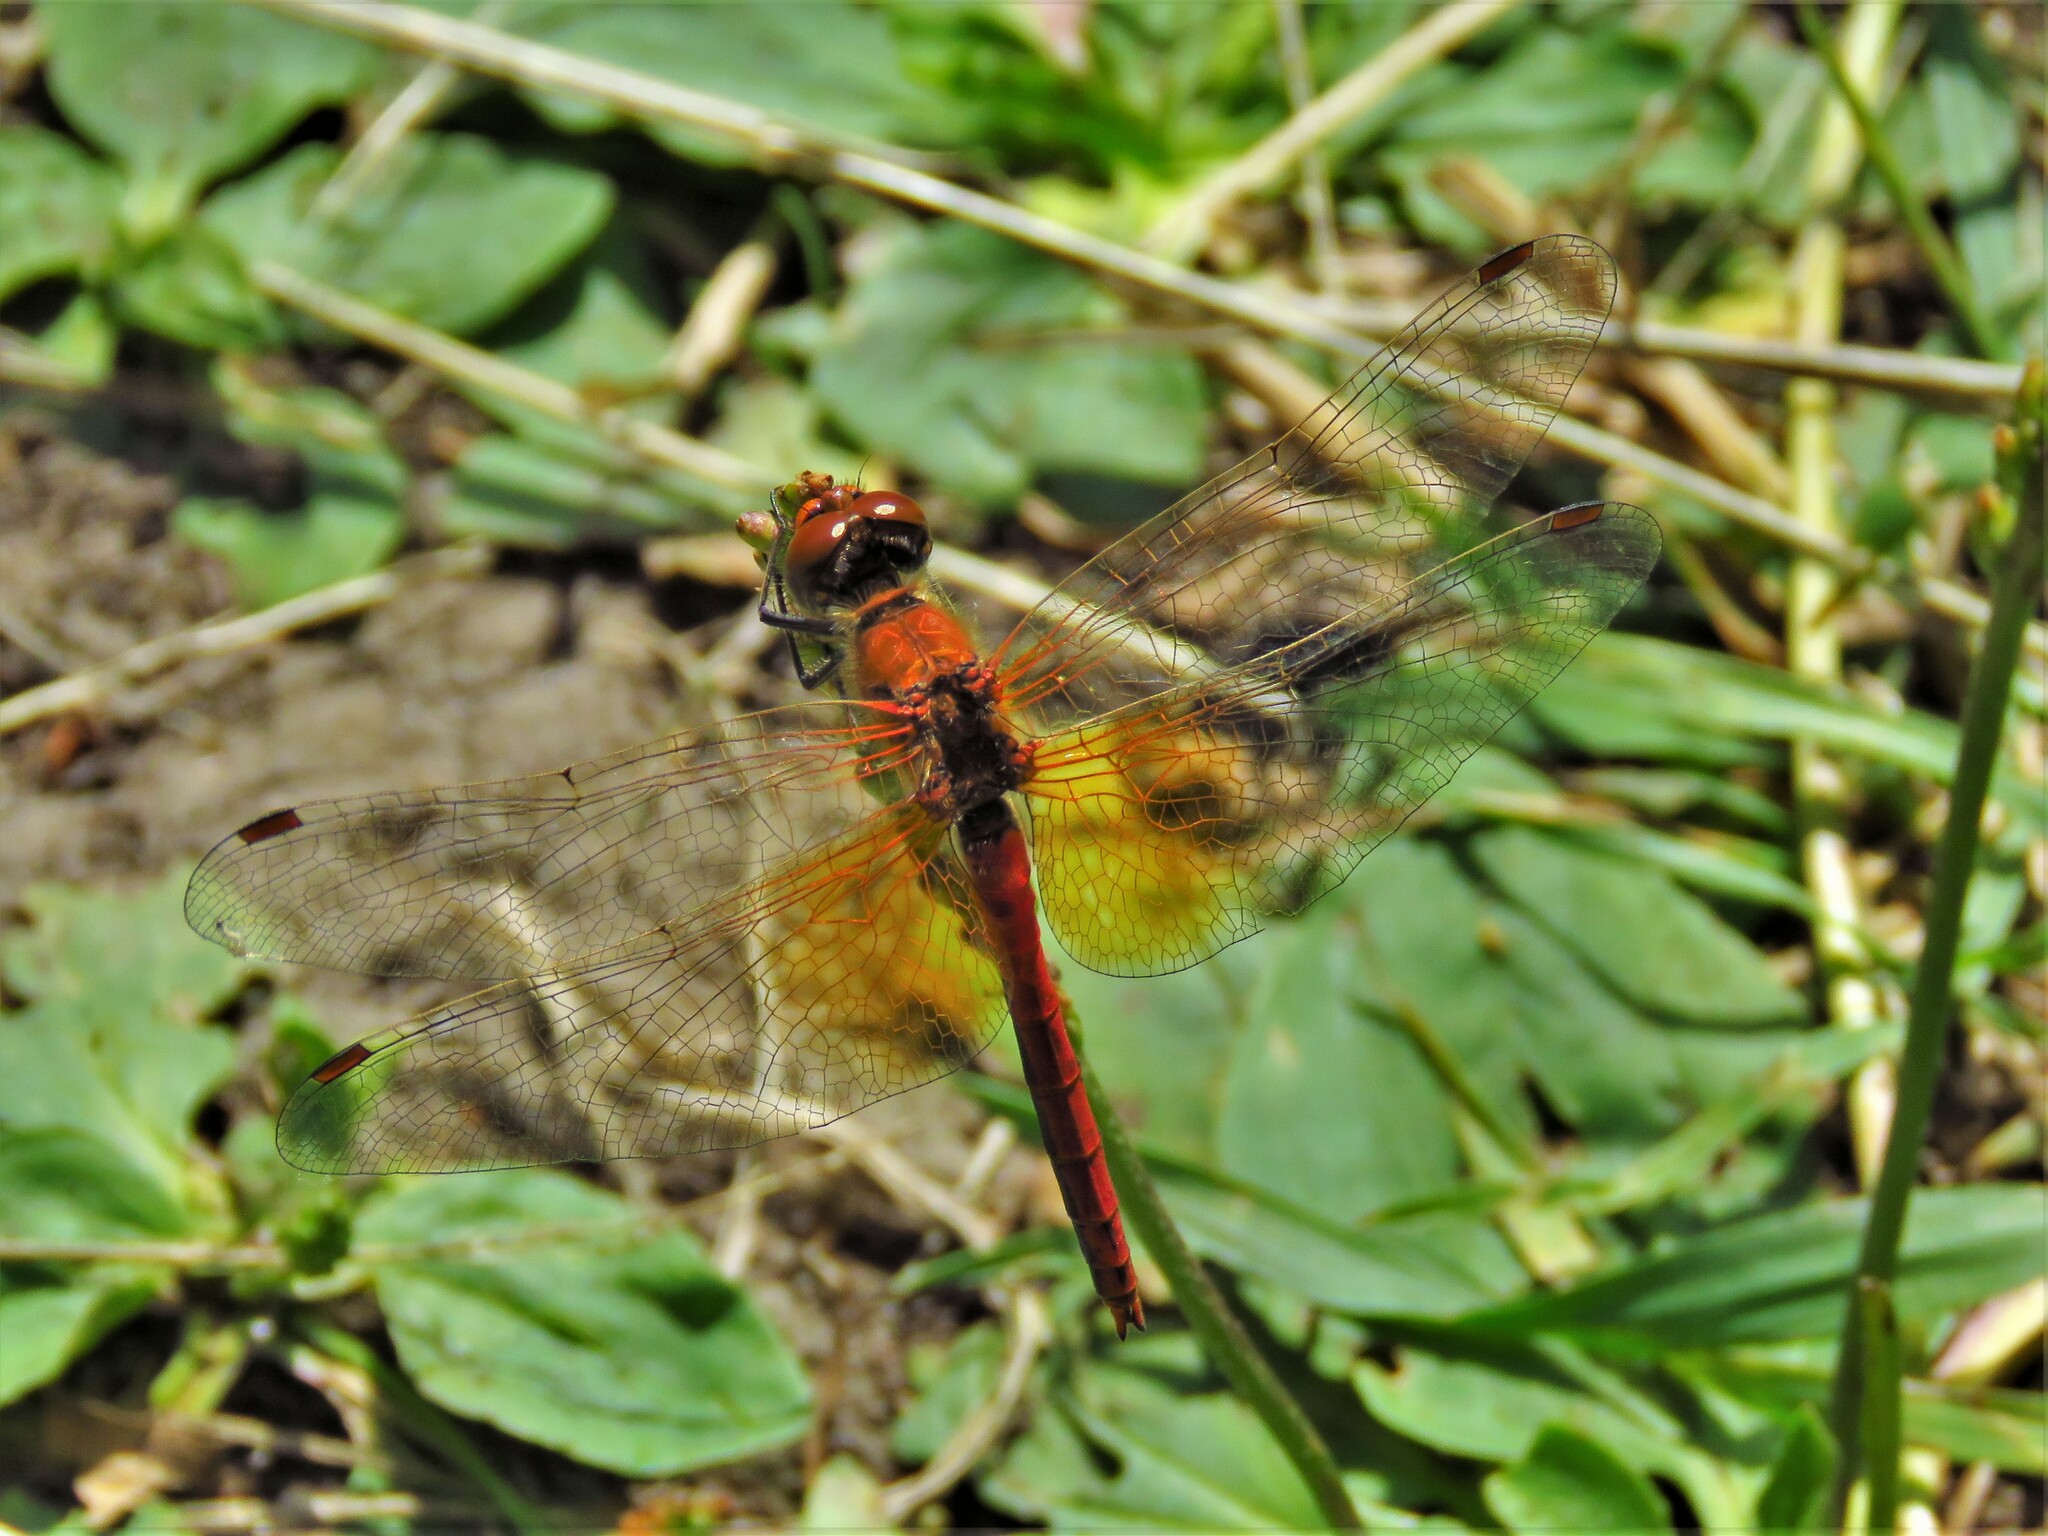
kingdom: Animalia
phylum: Arthropoda
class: Insecta
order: Odonata
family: Libellulidae
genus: Sympetrum
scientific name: Sympetrum flaveolum
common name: Yellow-winged darter
